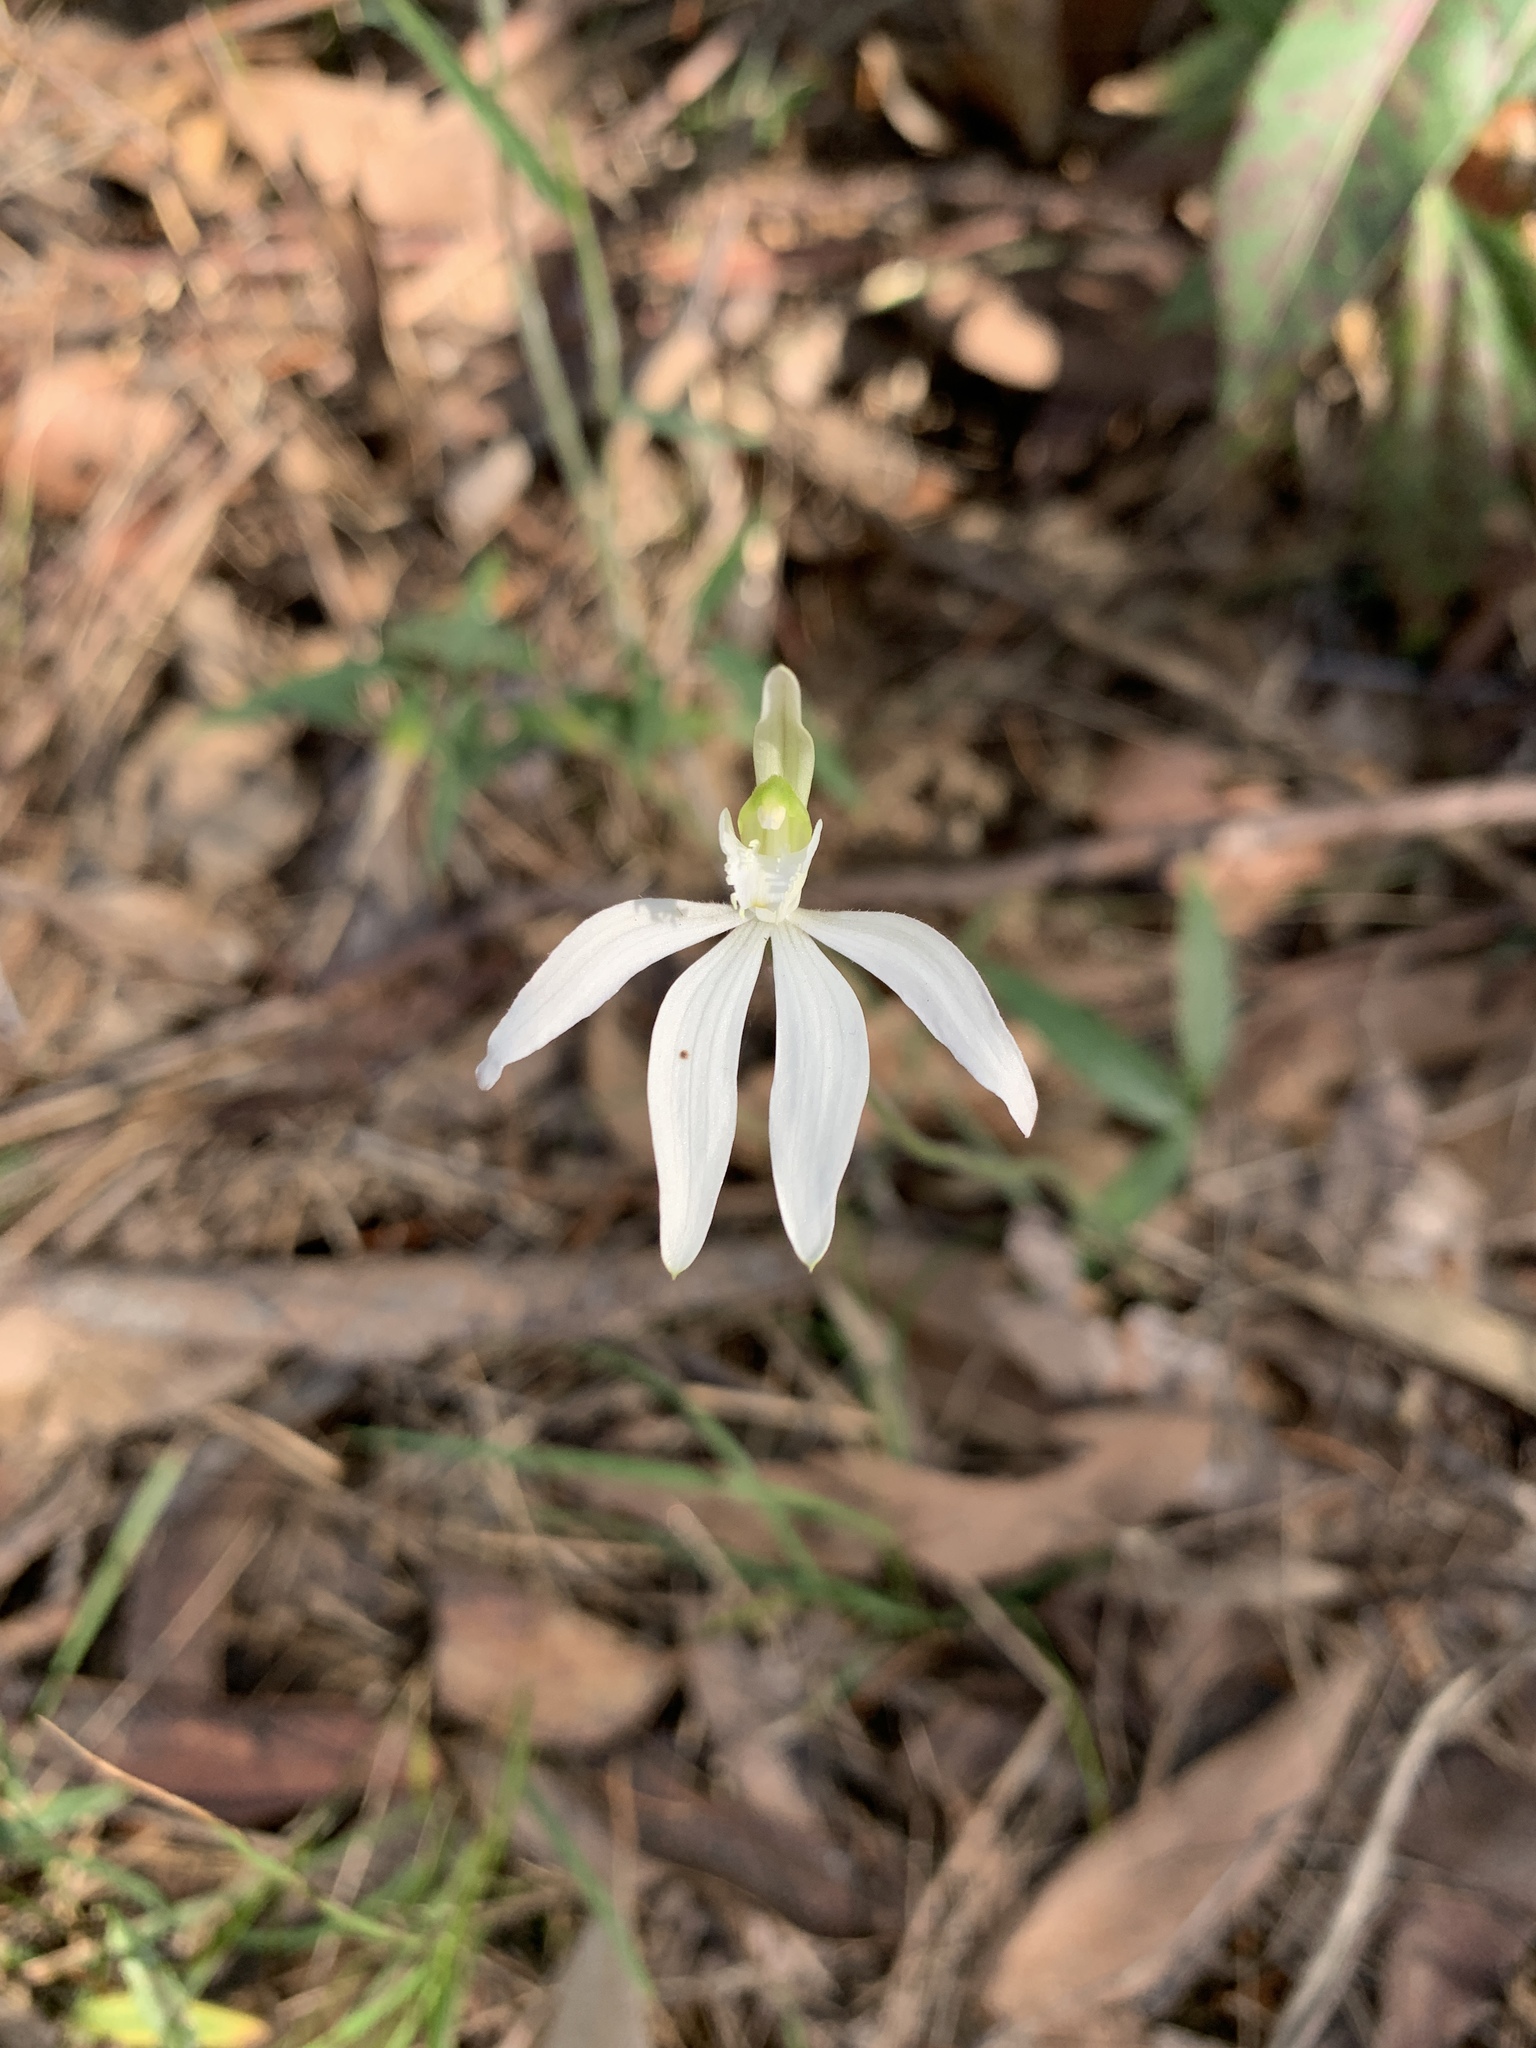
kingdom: Plantae
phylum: Tracheophyta
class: Liliopsida
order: Asparagales
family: Orchidaceae
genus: Caladenia
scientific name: Caladenia catenata
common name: White caladenia
